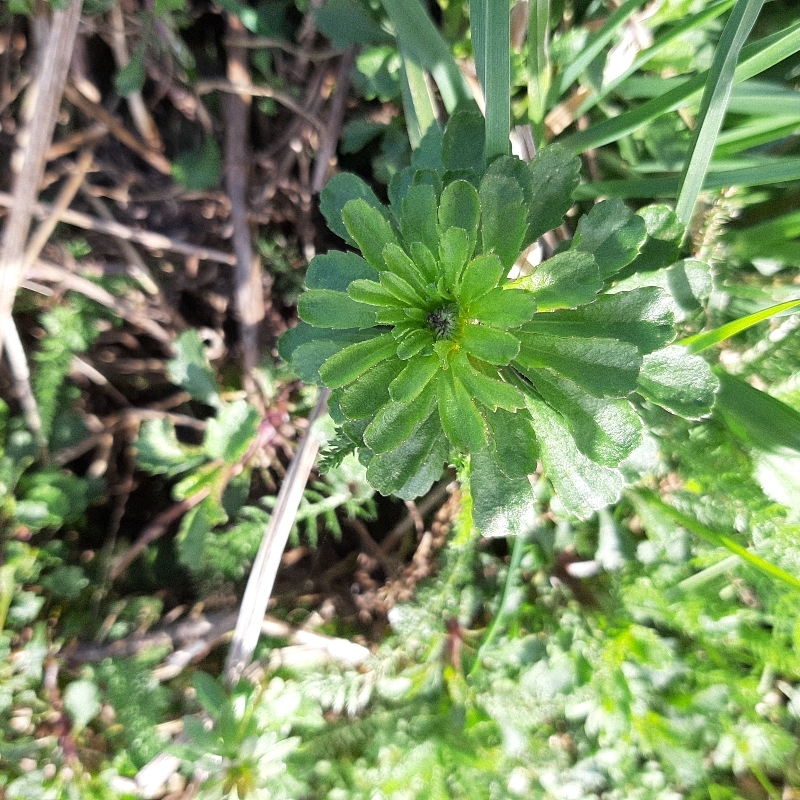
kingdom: Plantae
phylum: Tracheophyta
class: Magnoliopsida
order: Asterales
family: Asteraceae
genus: Leucanthemum
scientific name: Leucanthemum vulgare
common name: Oxeye daisy
